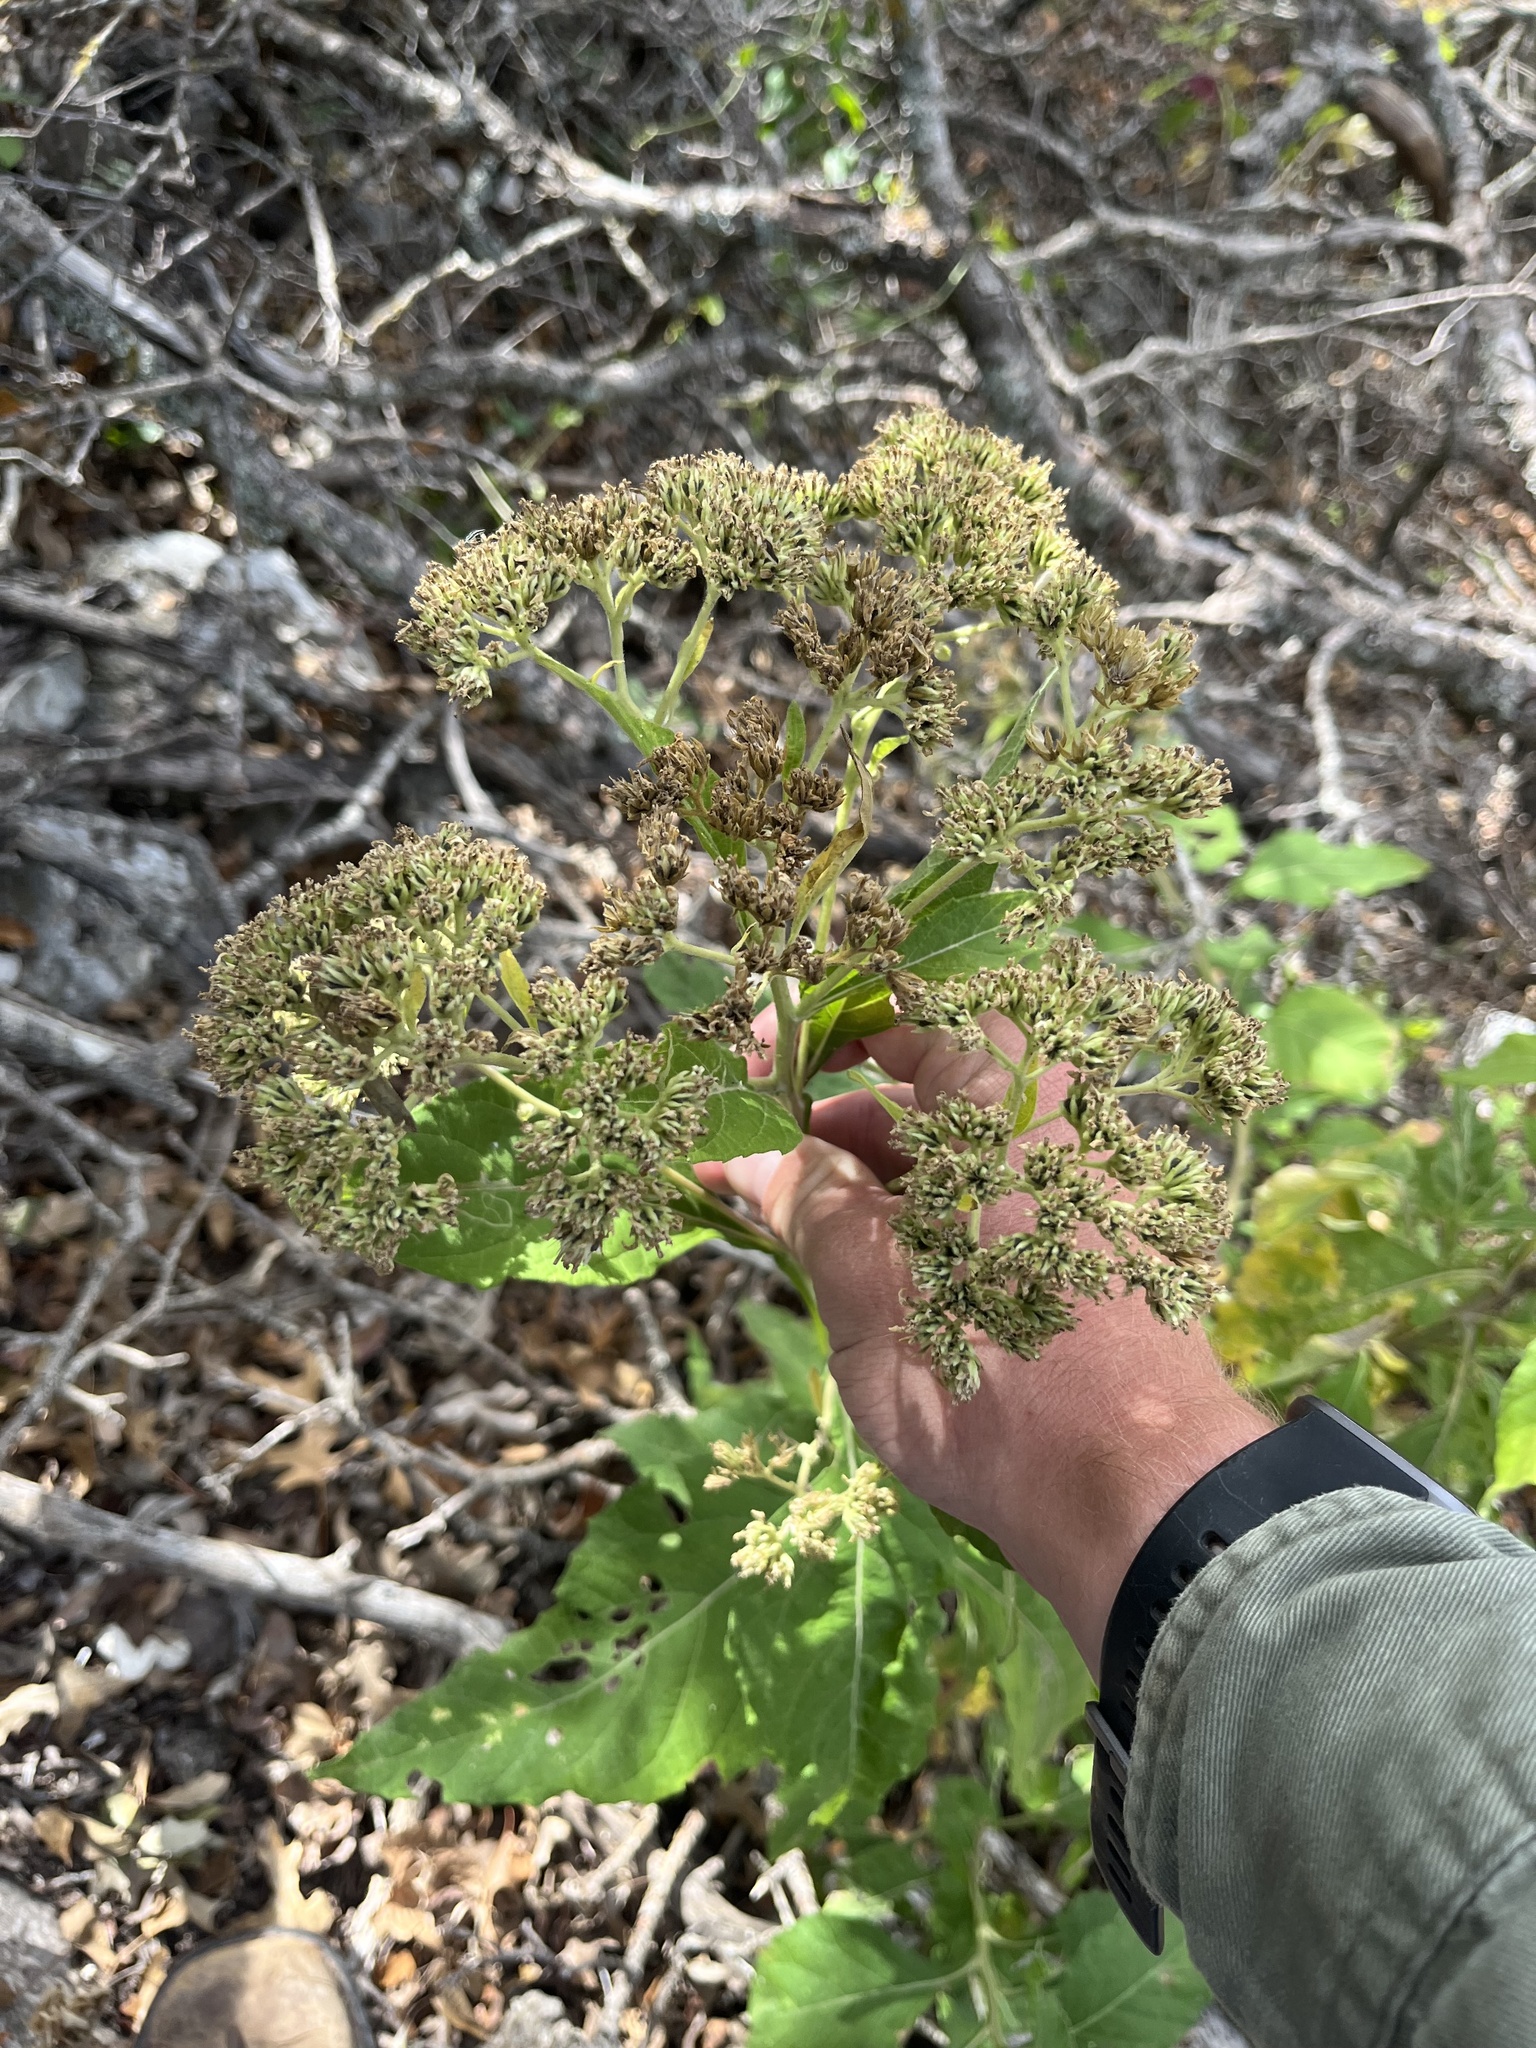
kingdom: Plantae
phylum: Tracheophyta
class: Magnoliopsida
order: Asterales
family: Asteraceae
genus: Verbesina
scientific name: Verbesina virginica
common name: Frostweed
